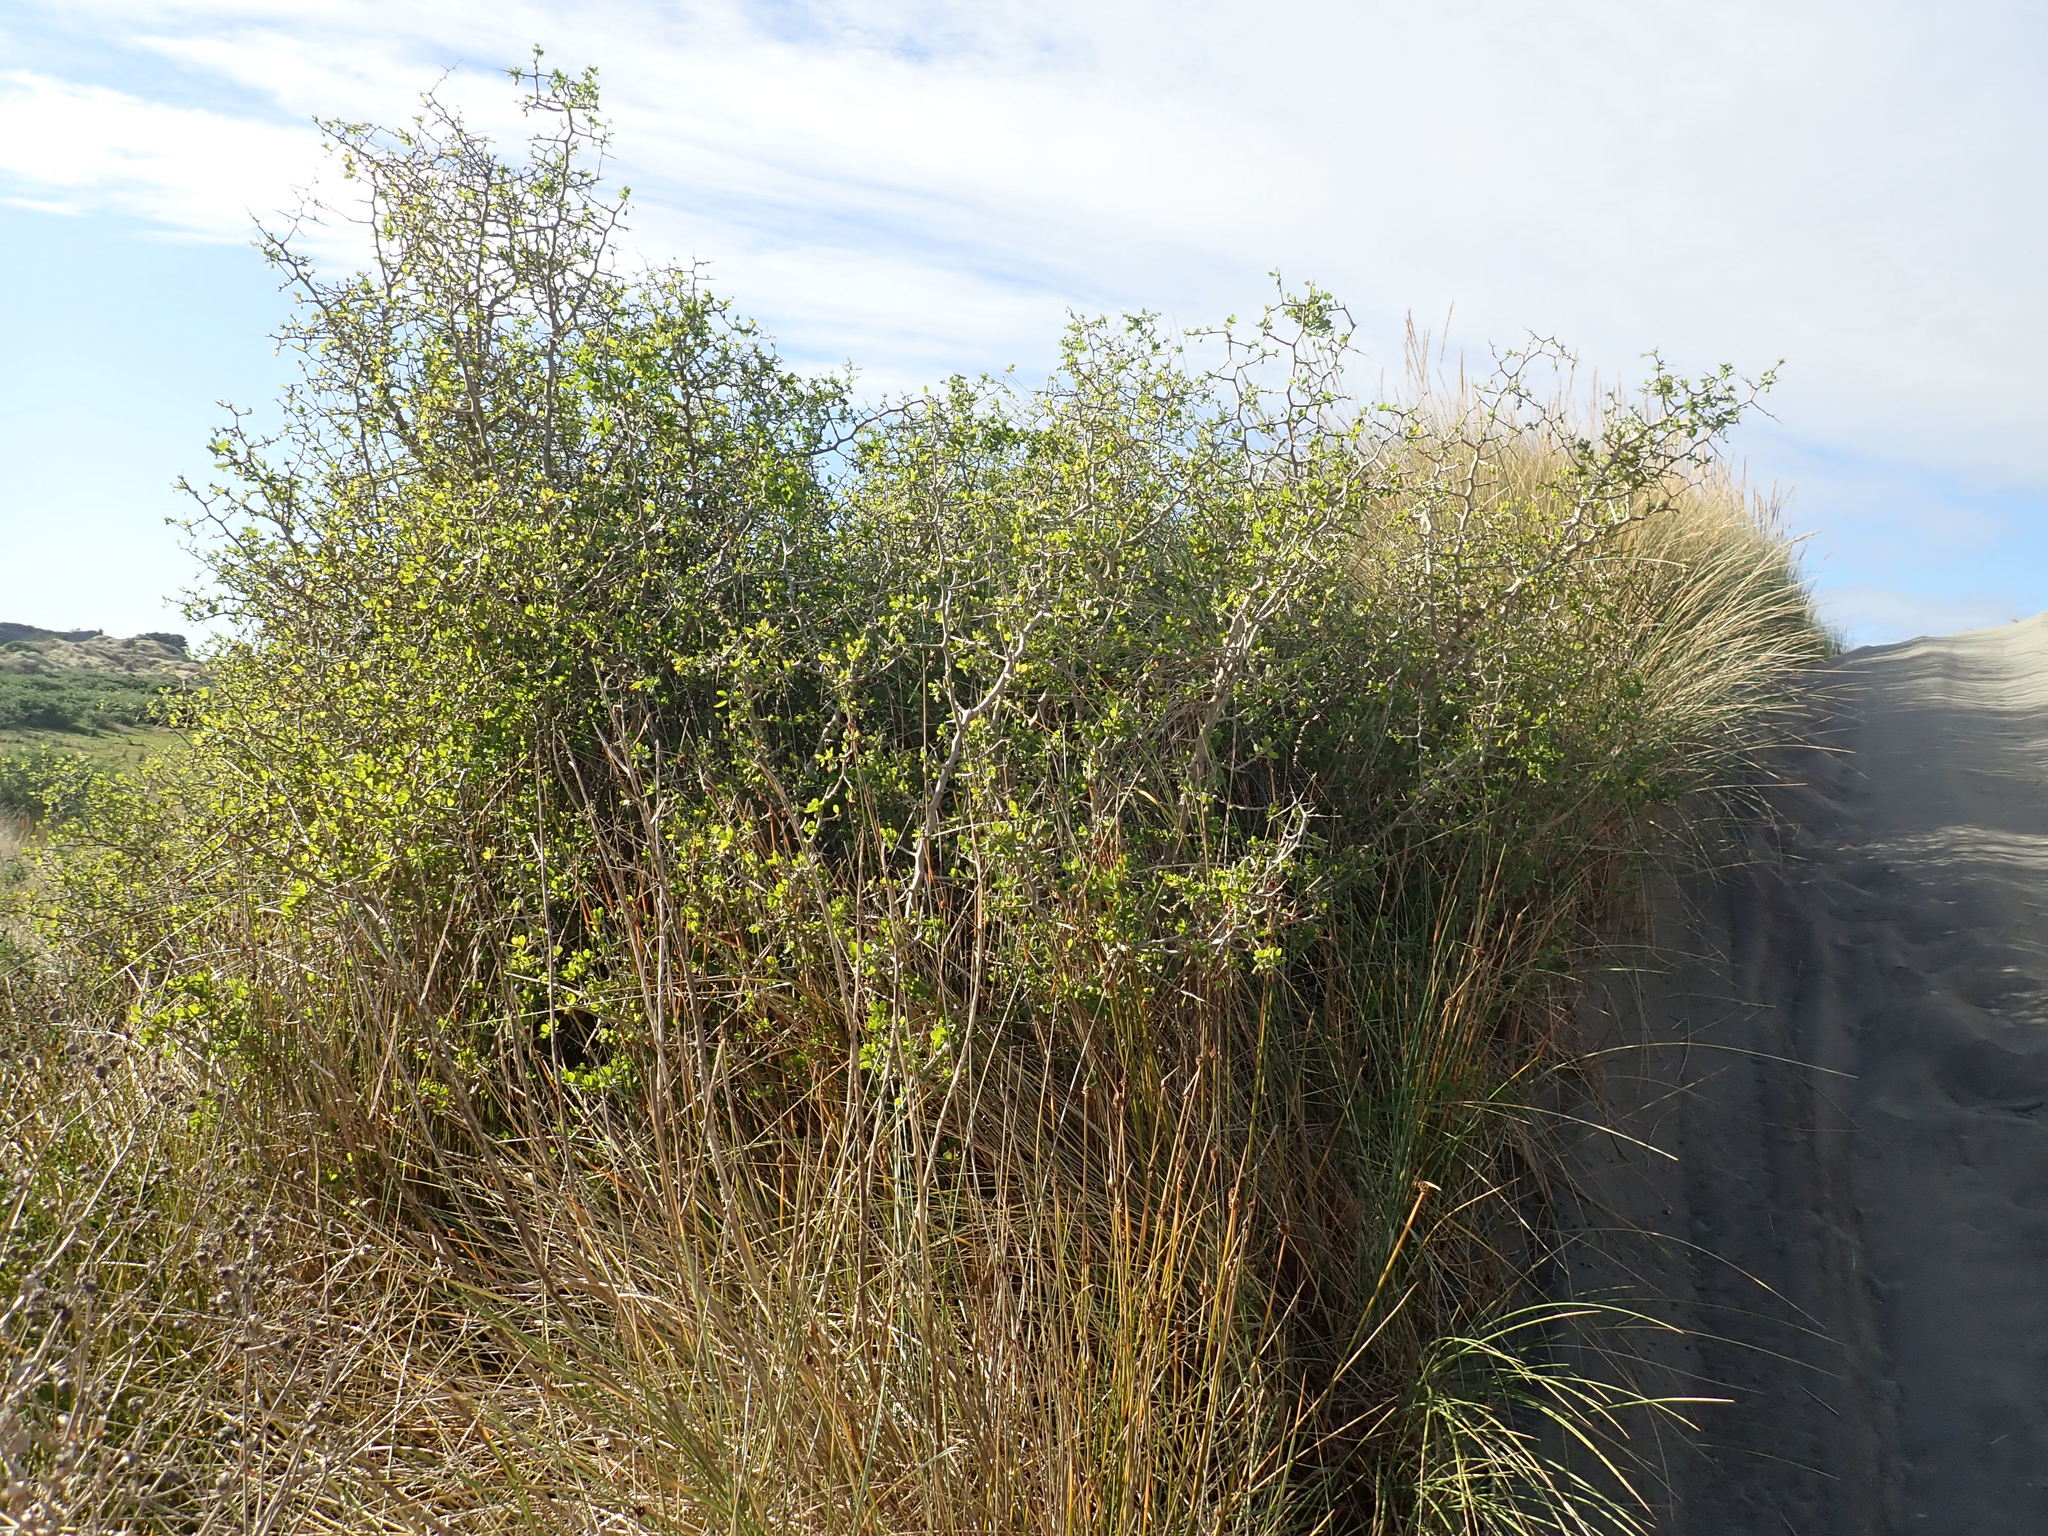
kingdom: Plantae
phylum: Tracheophyta
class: Magnoliopsida
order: Solanales
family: Solanaceae
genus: Lycium
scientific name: Lycium ferocissimum
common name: African boxthorn
